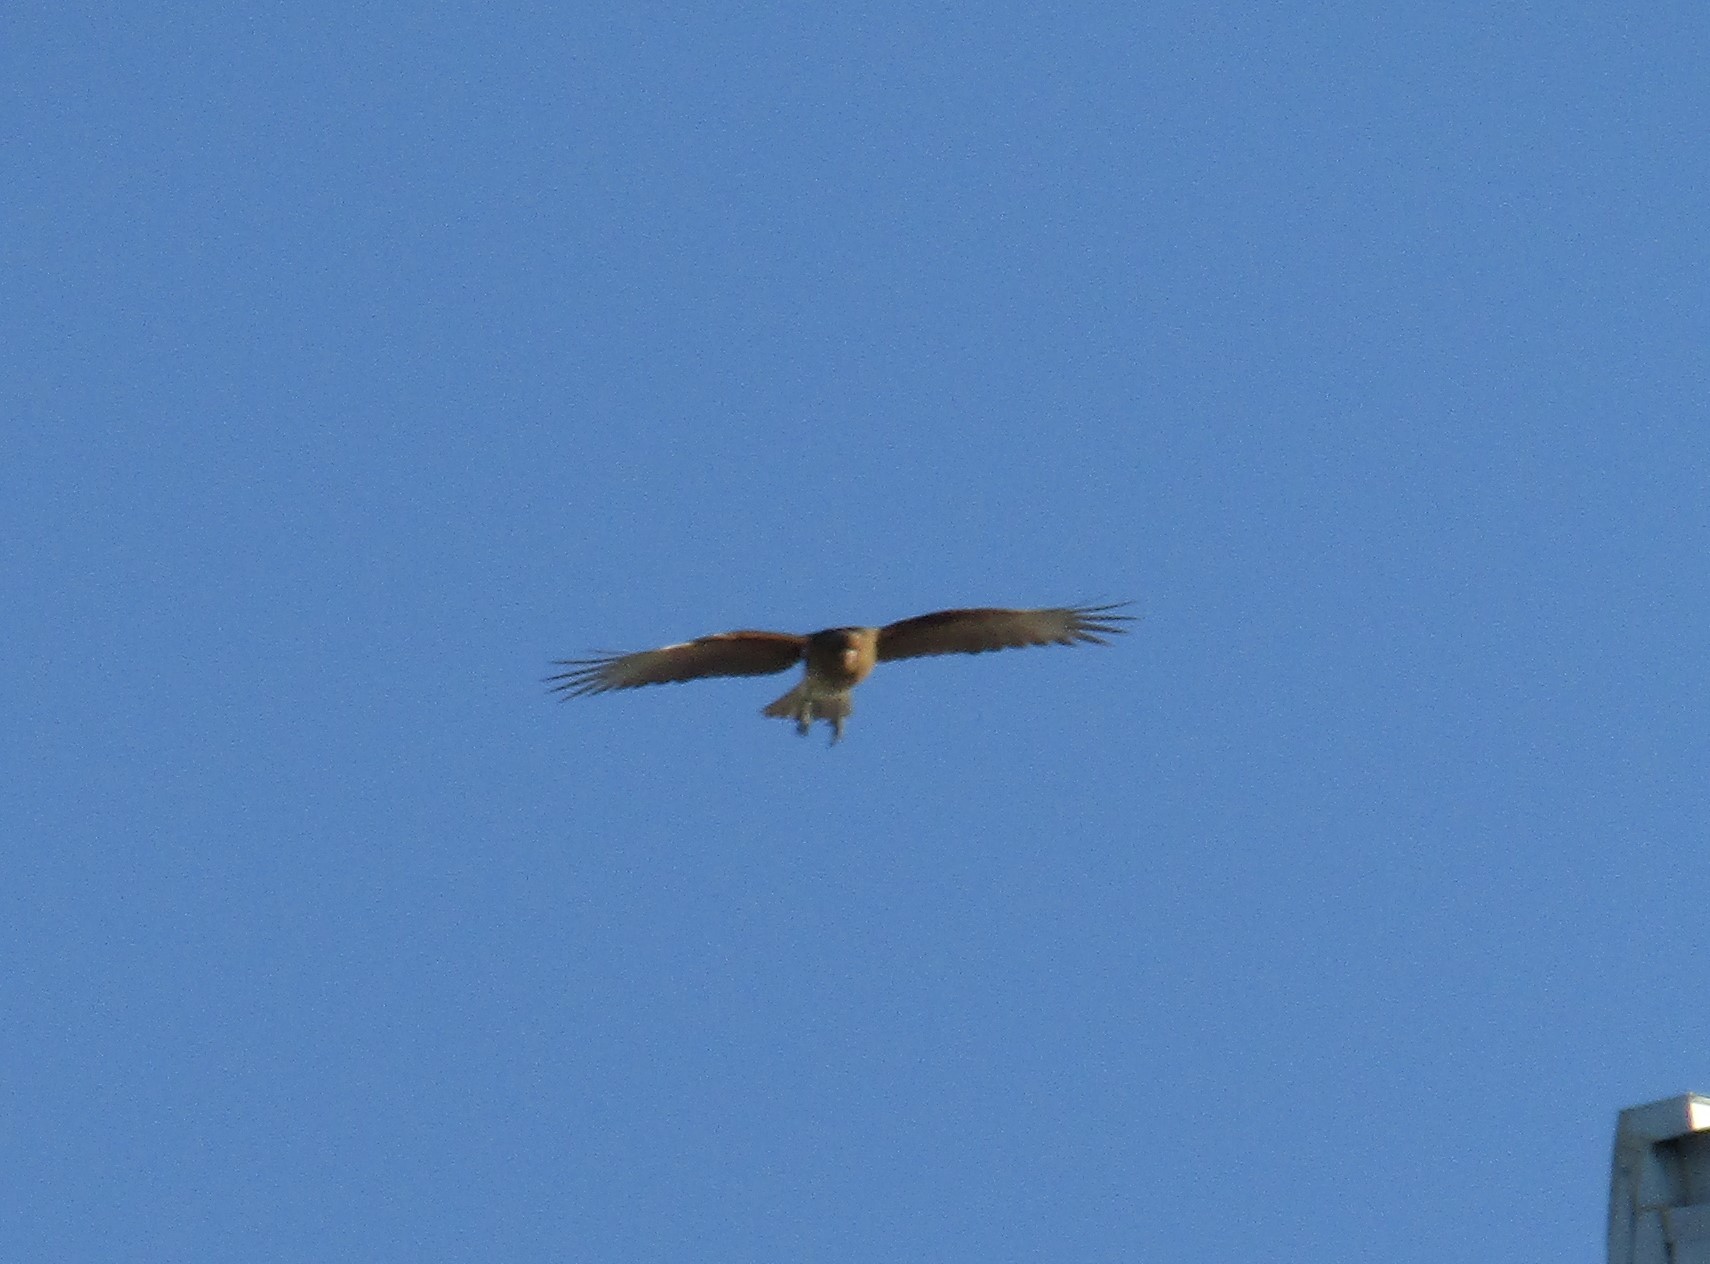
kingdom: Animalia
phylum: Chordata
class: Aves
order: Falconiformes
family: Falconidae
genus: Daptrius
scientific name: Daptrius
